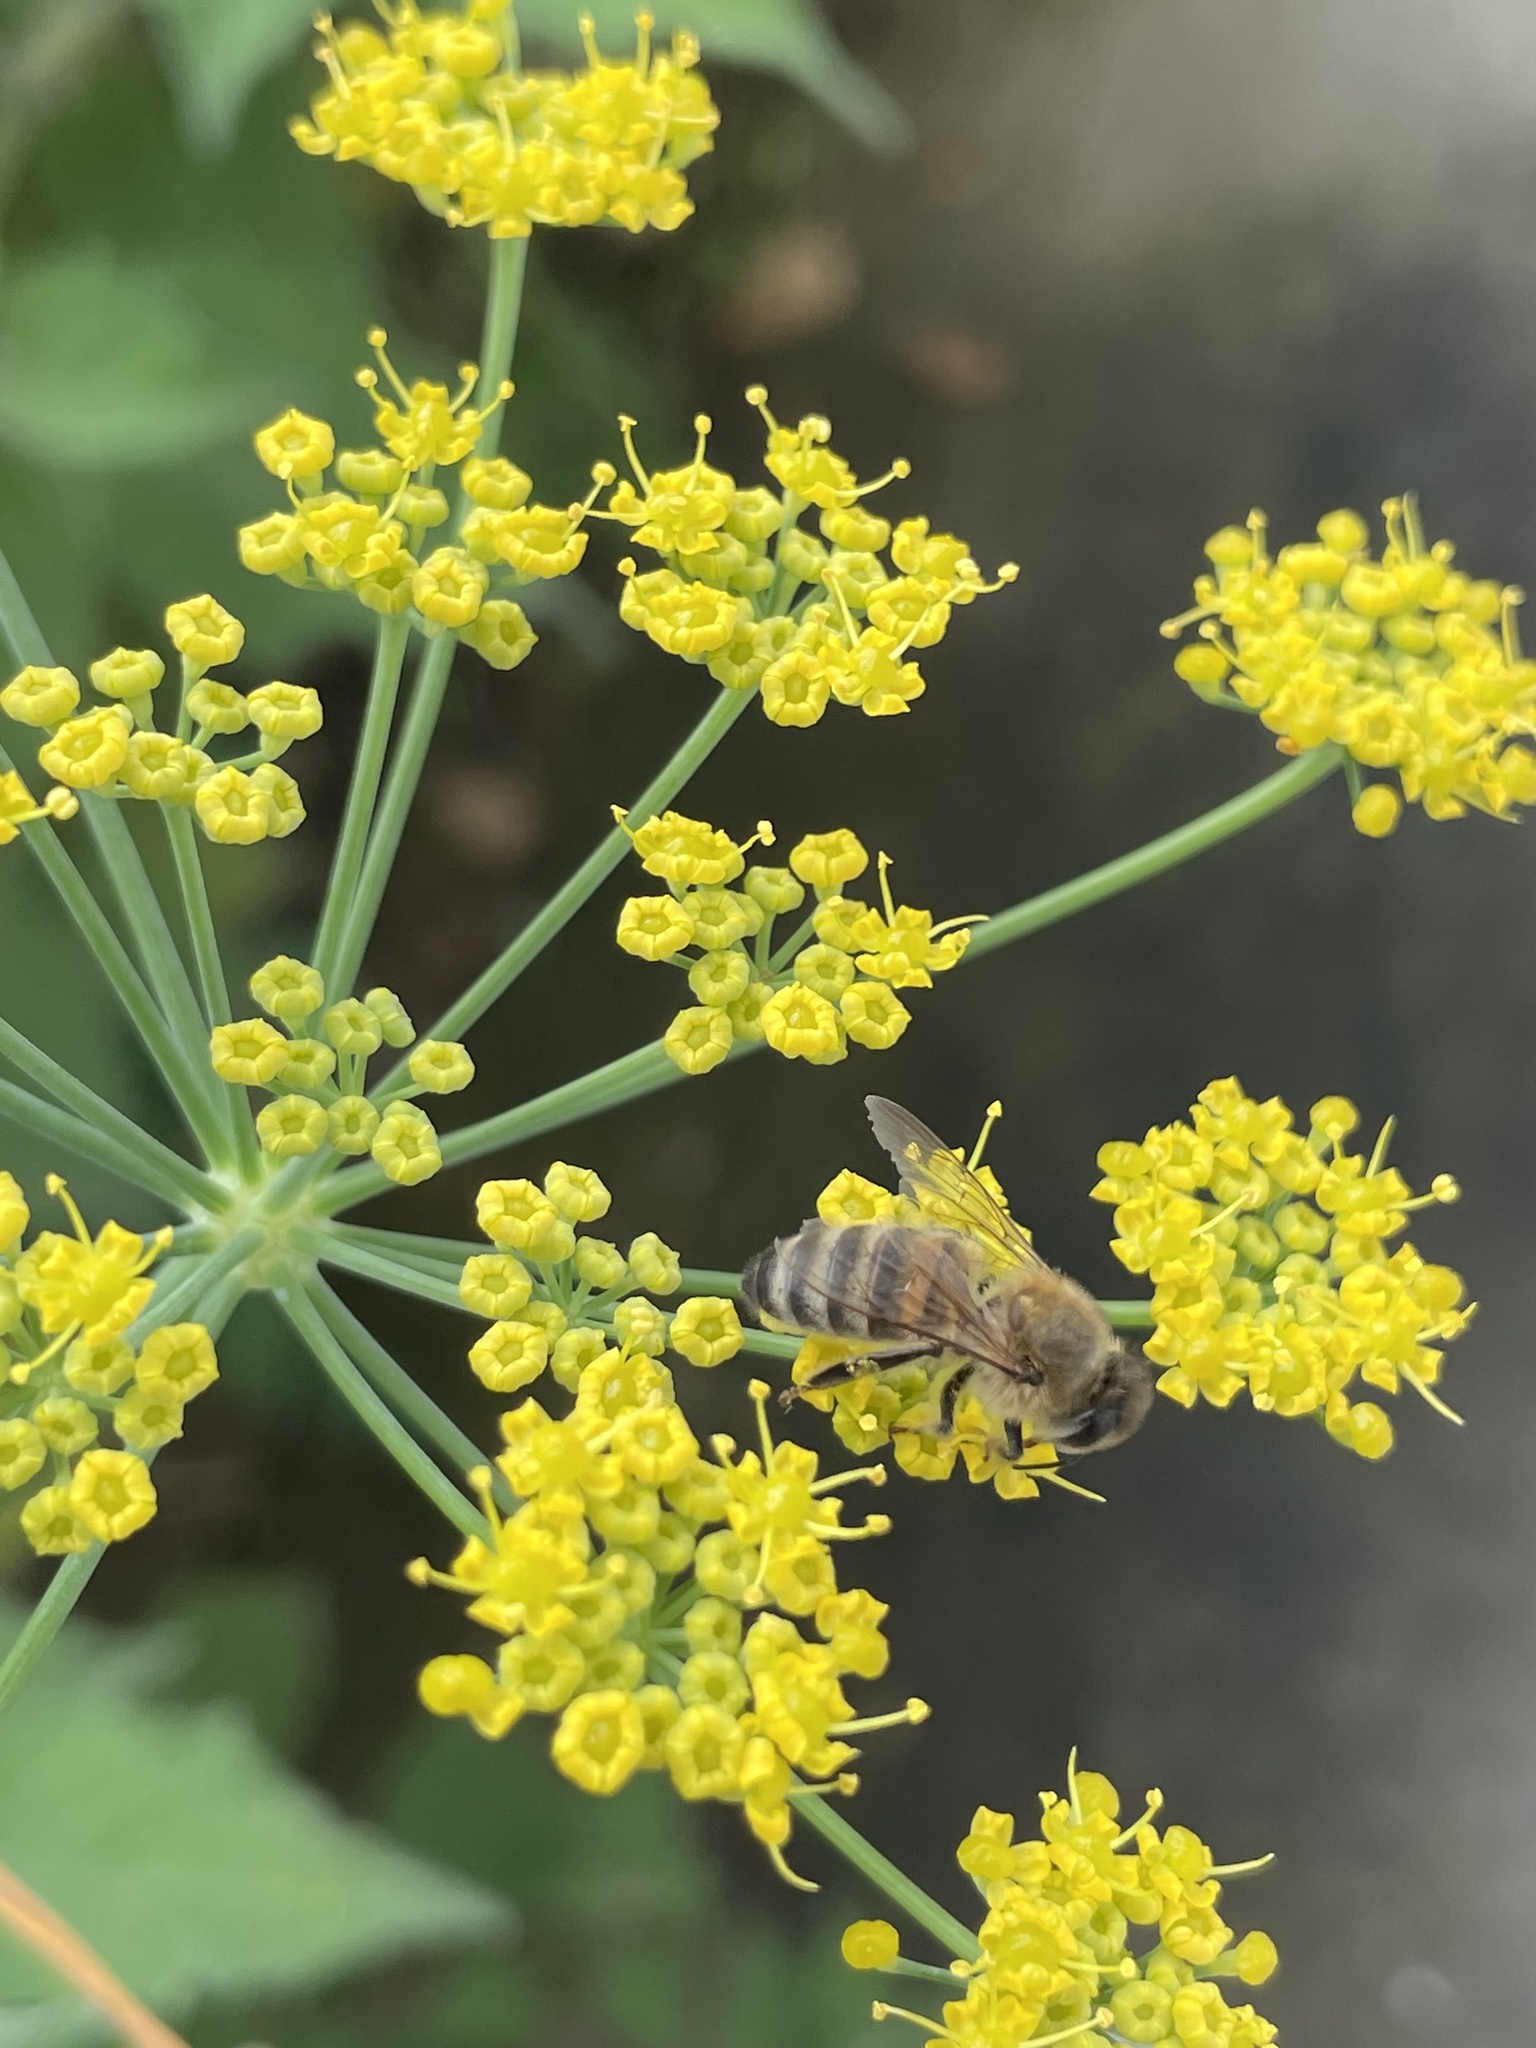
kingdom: Animalia
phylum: Arthropoda
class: Insecta
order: Hymenoptera
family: Apidae
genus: Apis
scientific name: Apis mellifera
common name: Honey bee
